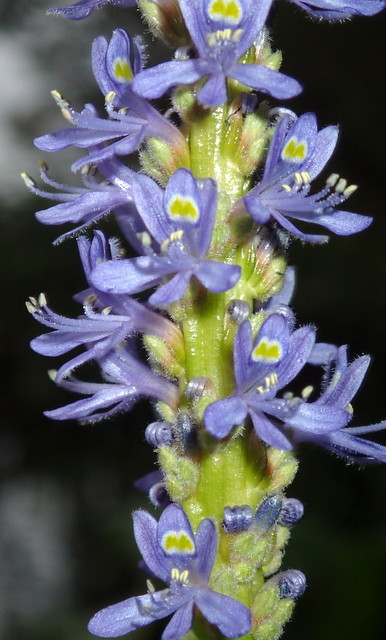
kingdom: Plantae
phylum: Tracheophyta
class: Liliopsida
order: Commelinales
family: Pontederiaceae
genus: Pontederia
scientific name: Pontederia cordata
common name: Pickerelweed
